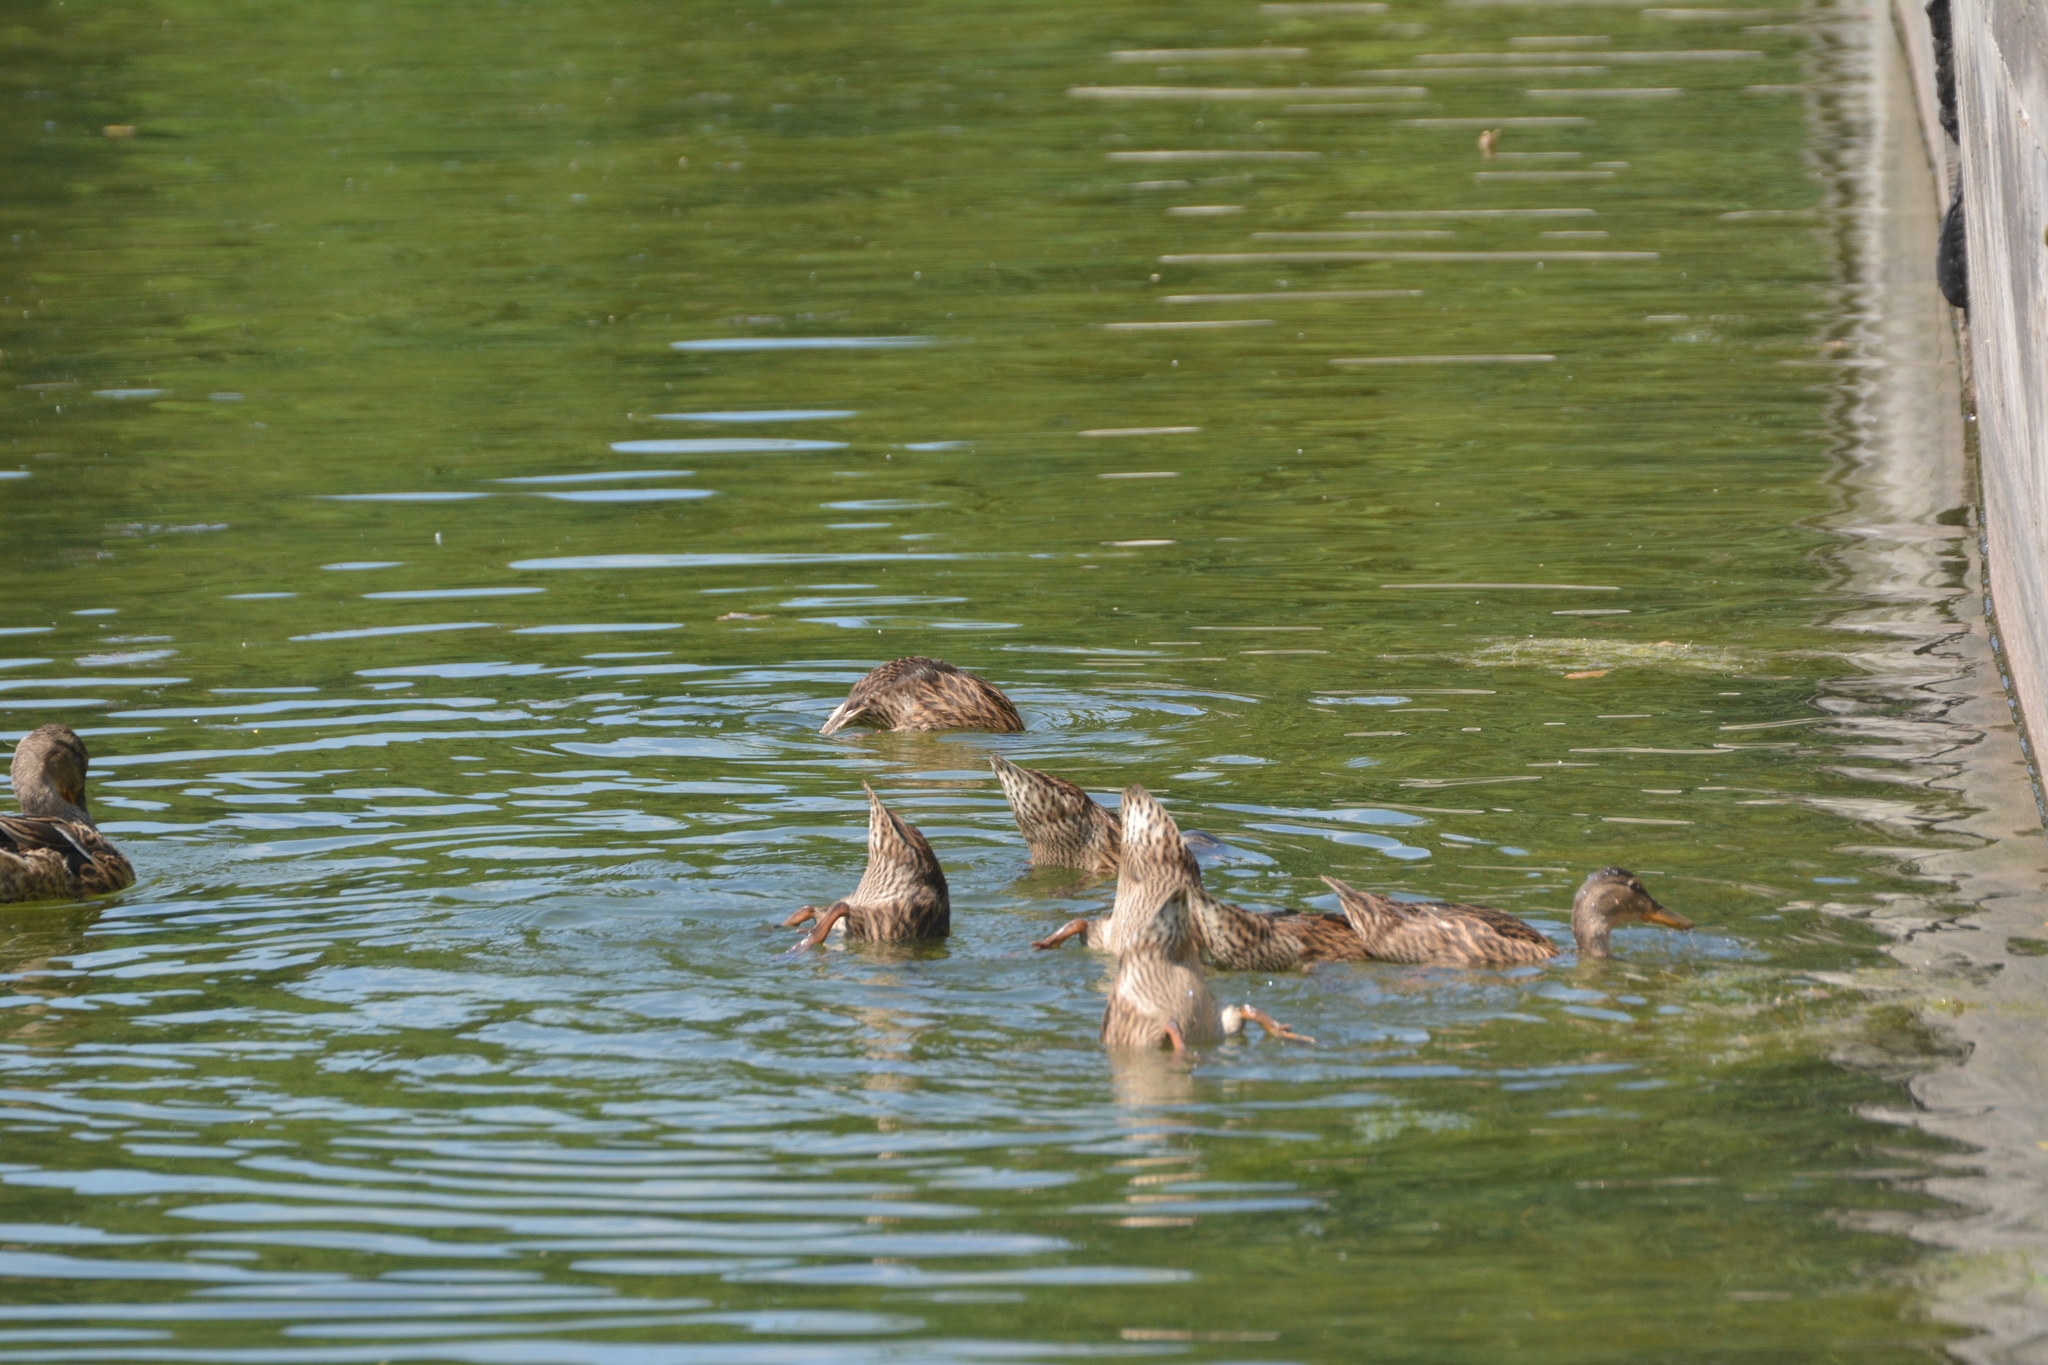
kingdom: Animalia
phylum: Chordata
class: Aves
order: Anseriformes
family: Anatidae
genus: Anas
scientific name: Anas platyrhynchos
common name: Mallard
